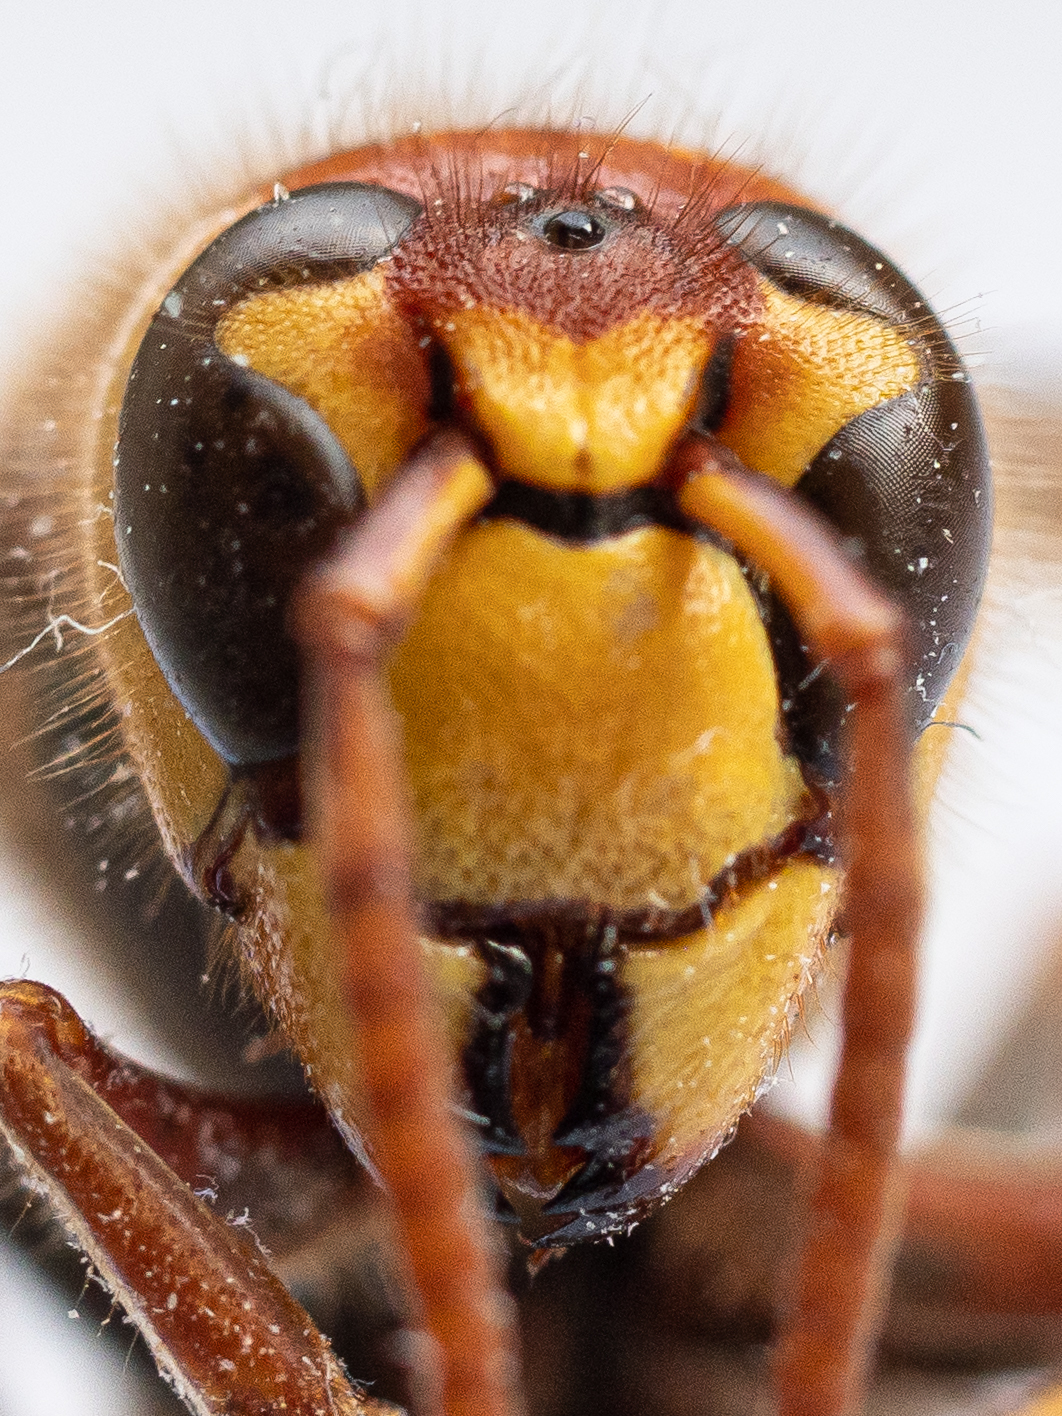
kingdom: Animalia
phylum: Arthropoda
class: Insecta
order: Hymenoptera
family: Vespidae
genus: Vespa
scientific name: Vespa crabro
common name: Hornet
